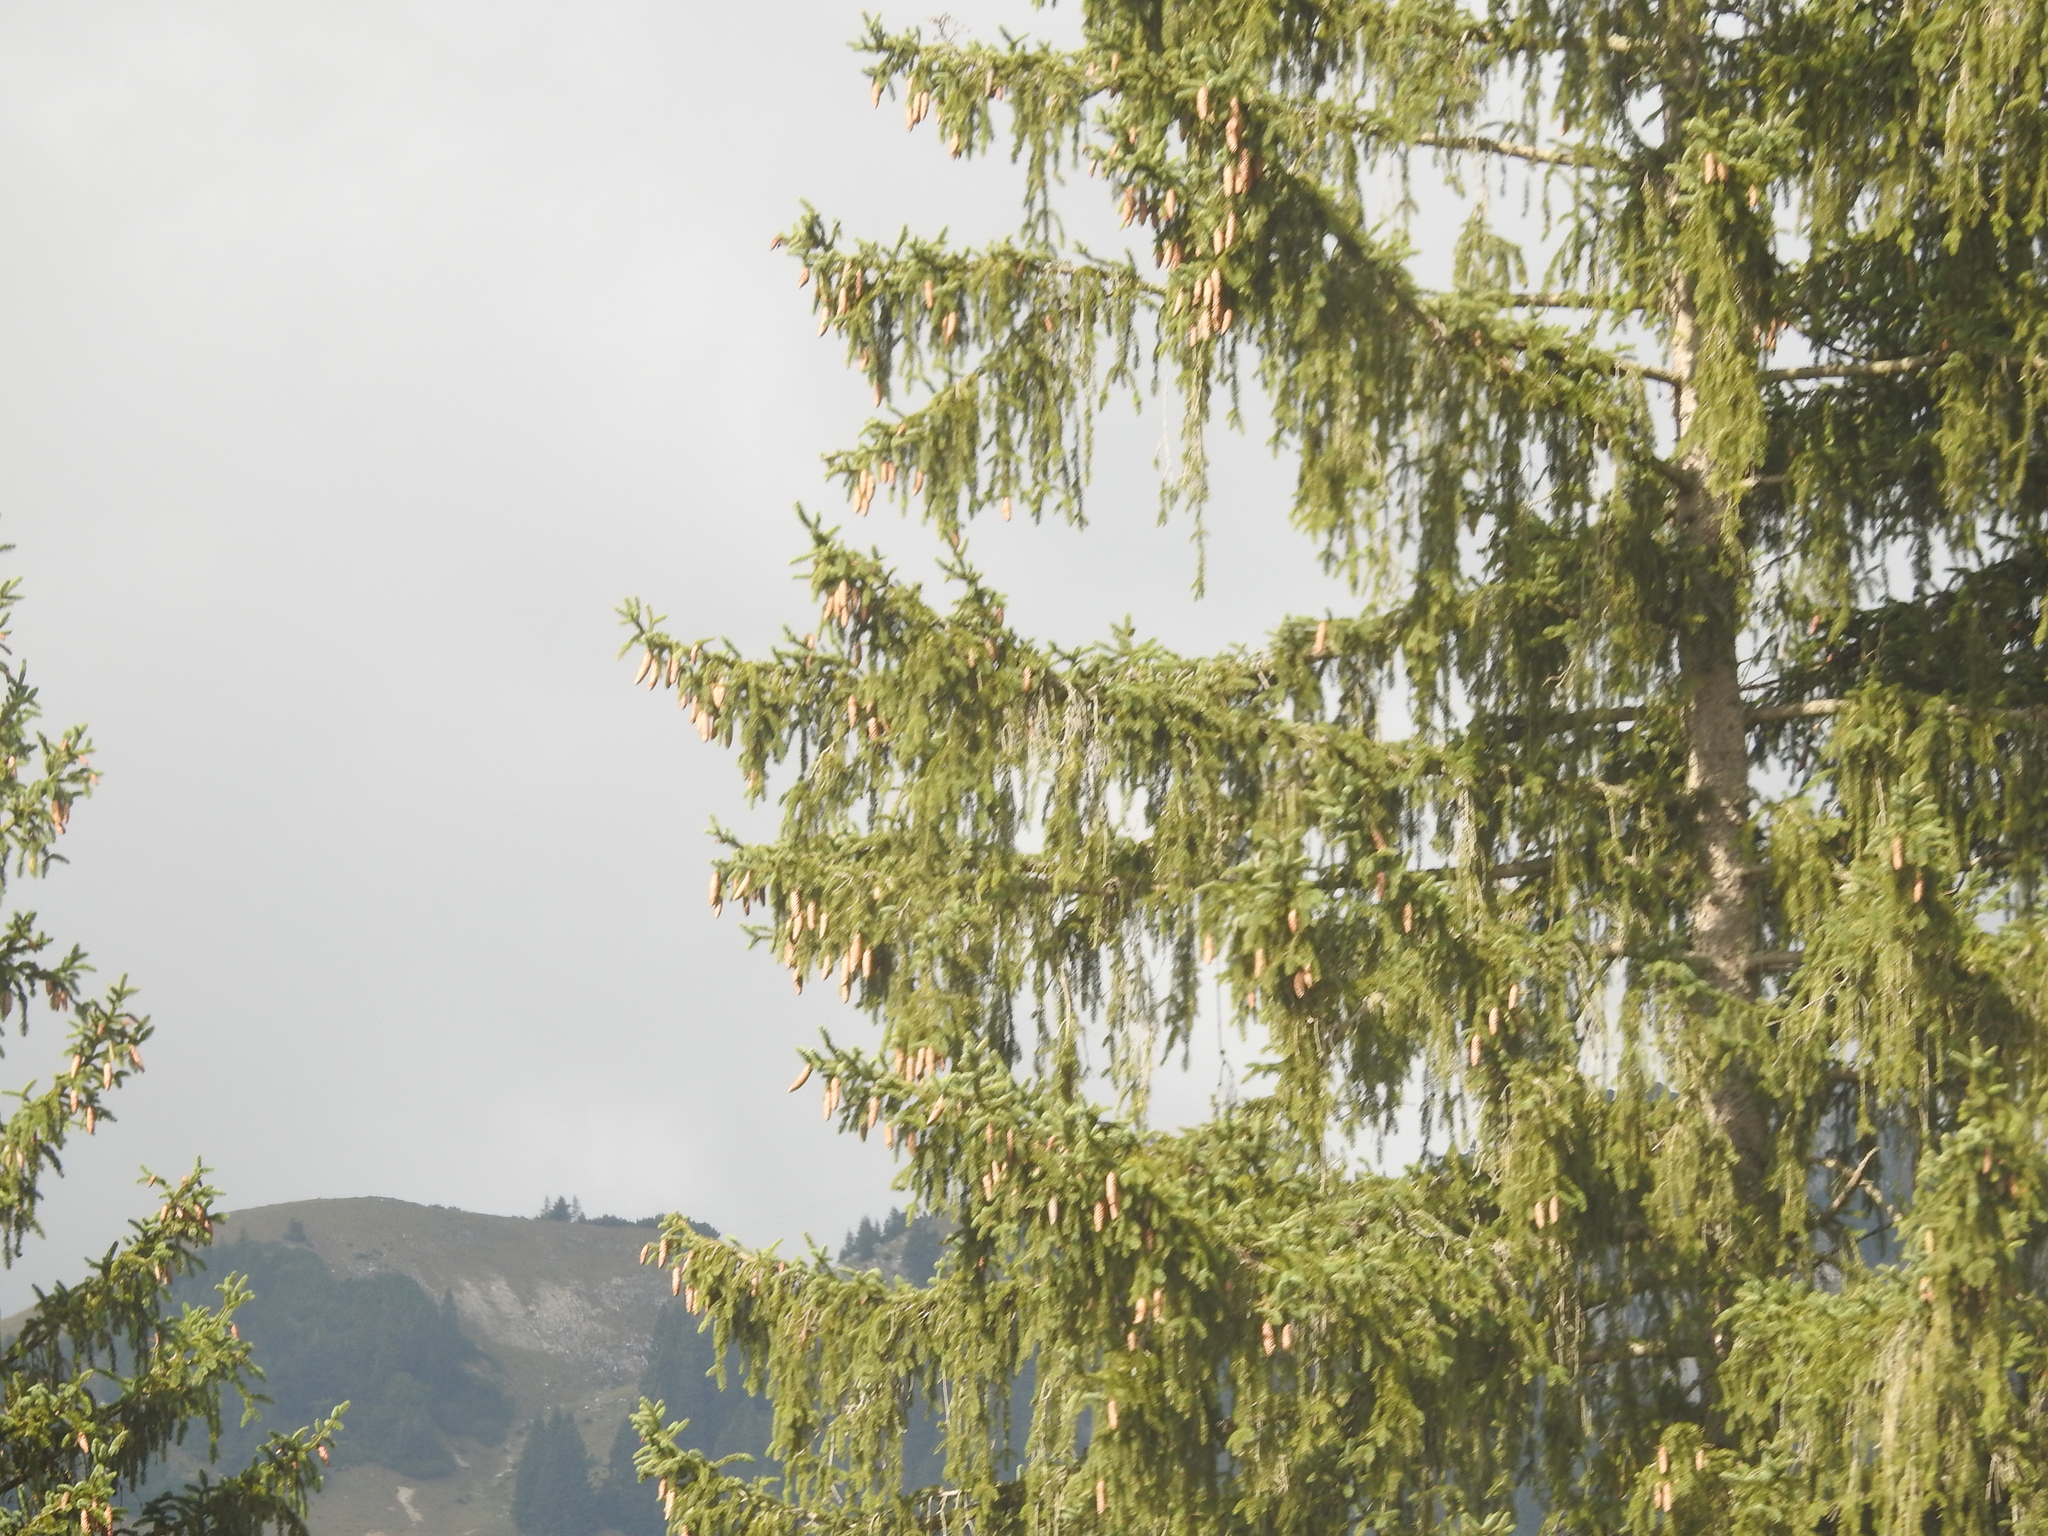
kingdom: Plantae
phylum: Tracheophyta
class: Pinopsida
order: Pinales
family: Pinaceae
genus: Picea
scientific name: Picea abies
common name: Norway spruce
